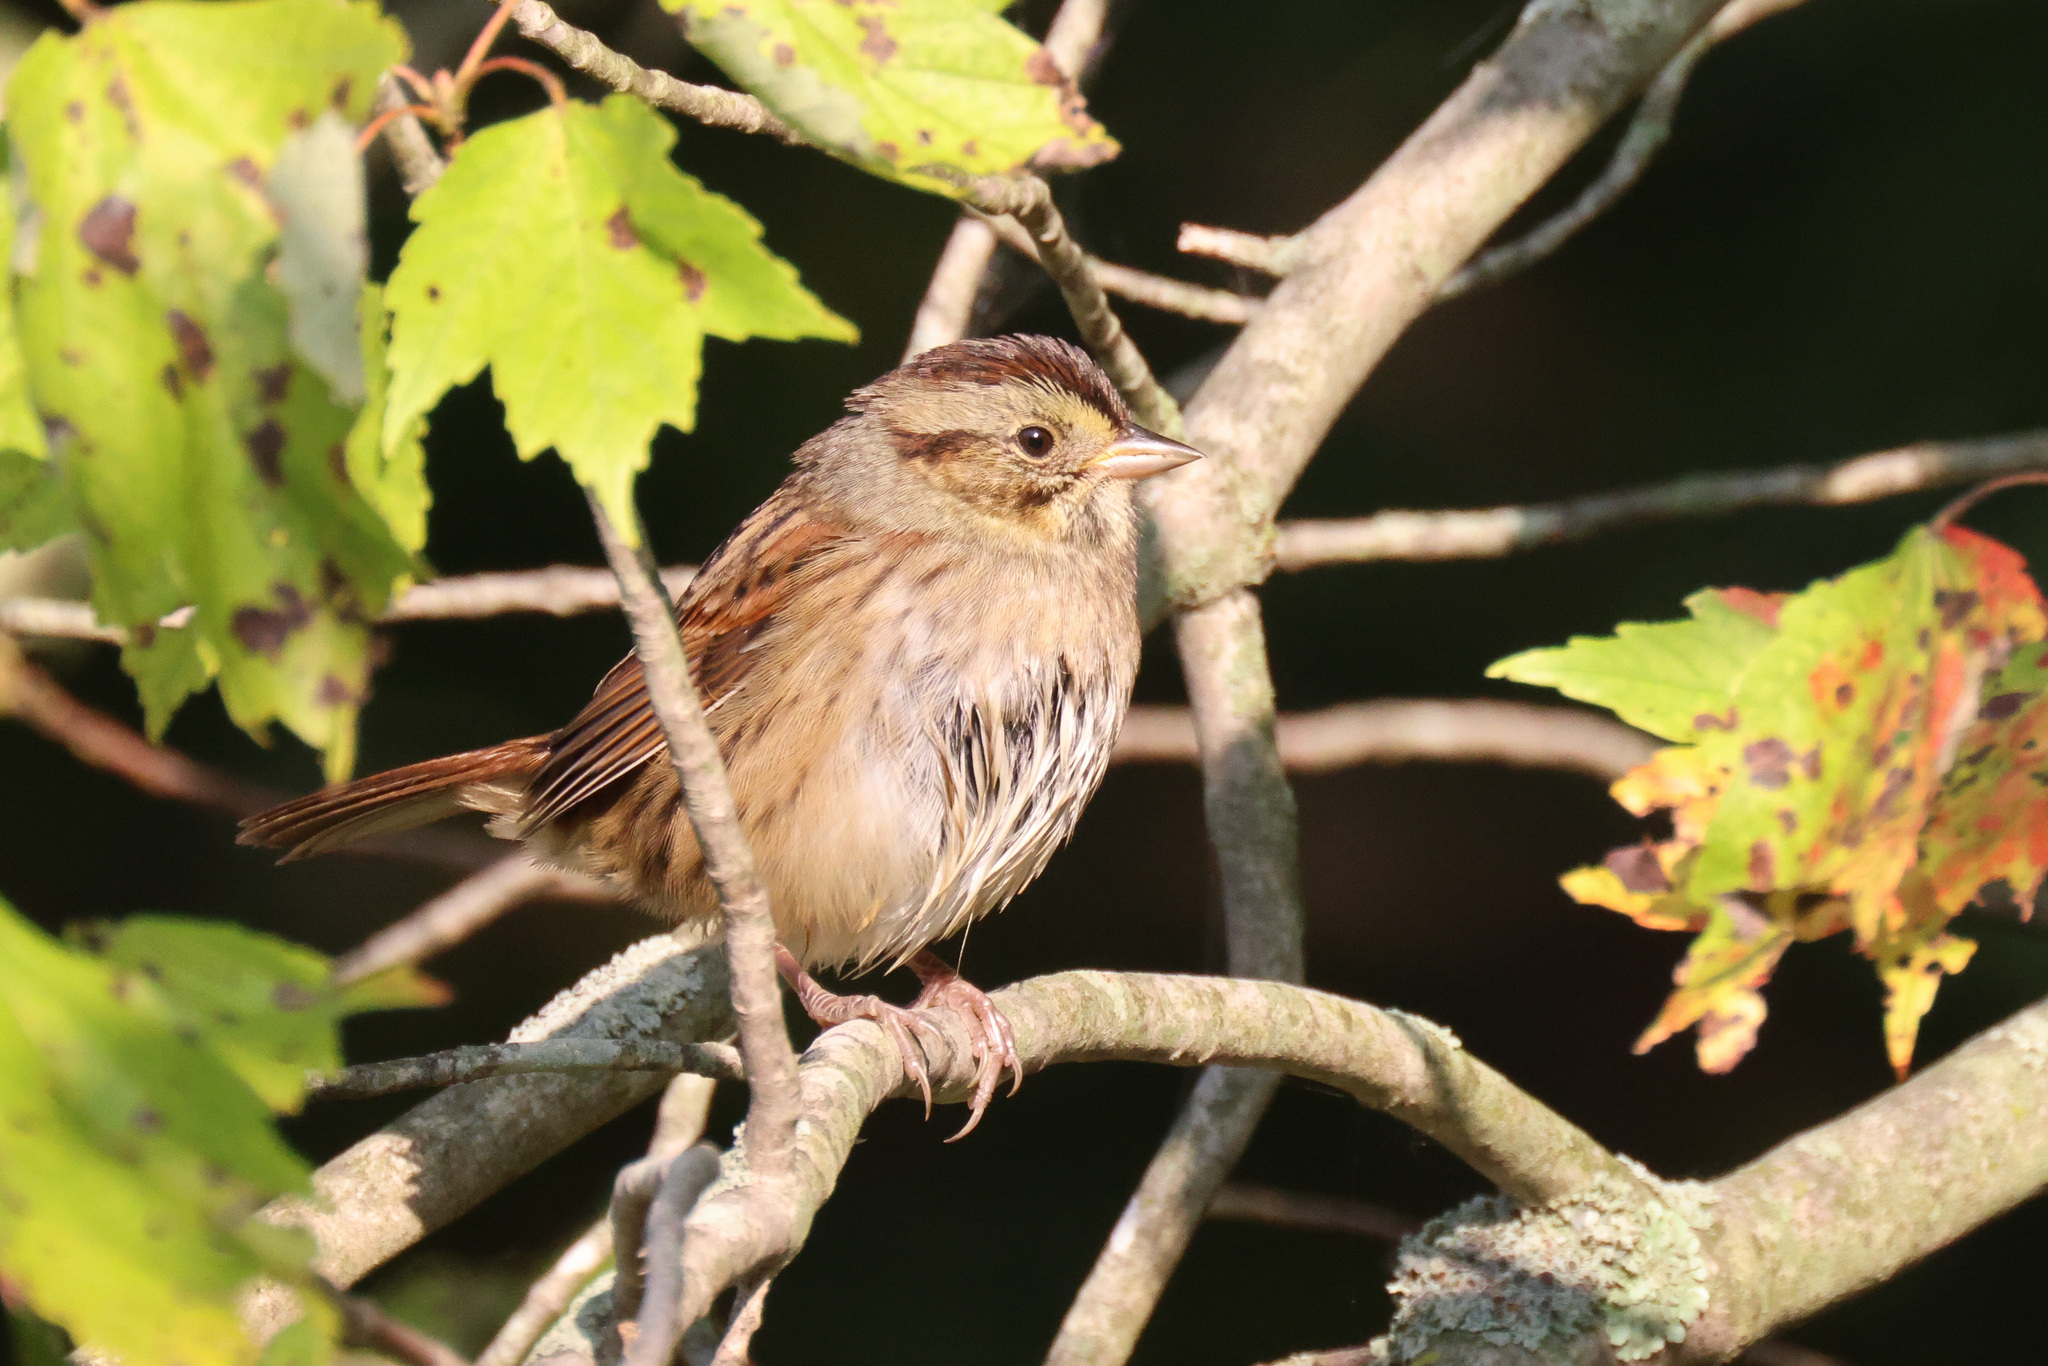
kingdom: Animalia
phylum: Chordata
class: Aves
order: Passeriformes
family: Passerellidae
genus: Melospiza
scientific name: Melospiza georgiana
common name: Swamp sparrow
